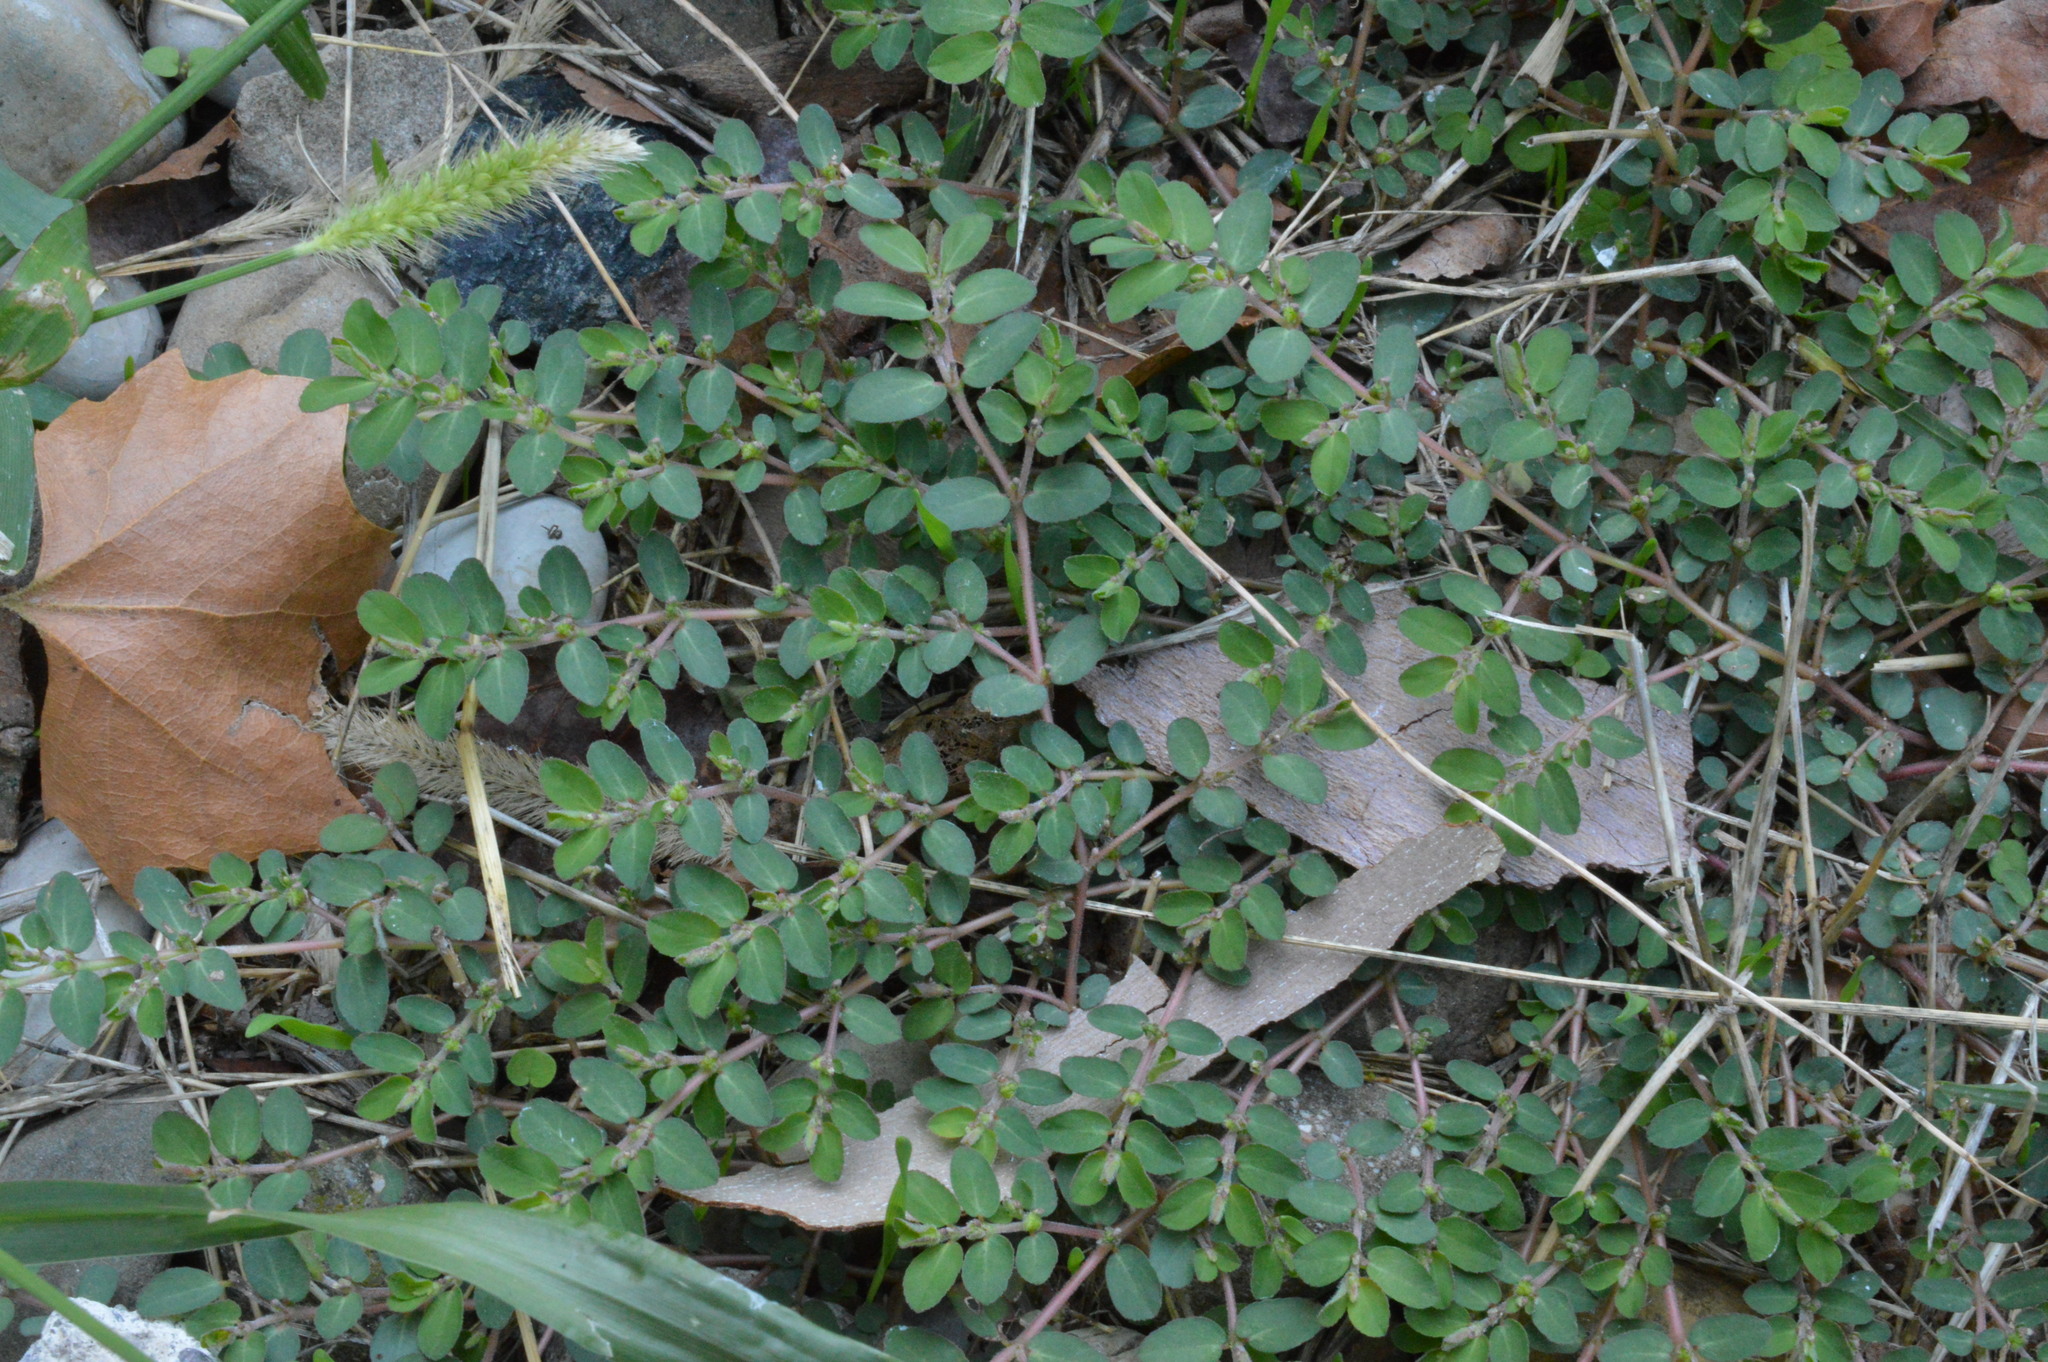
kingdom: Plantae
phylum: Tracheophyta
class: Magnoliopsida
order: Malpighiales
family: Euphorbiaceae
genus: Euphorbia
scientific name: Euphorbia prostrata
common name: Prostrate sandmat
